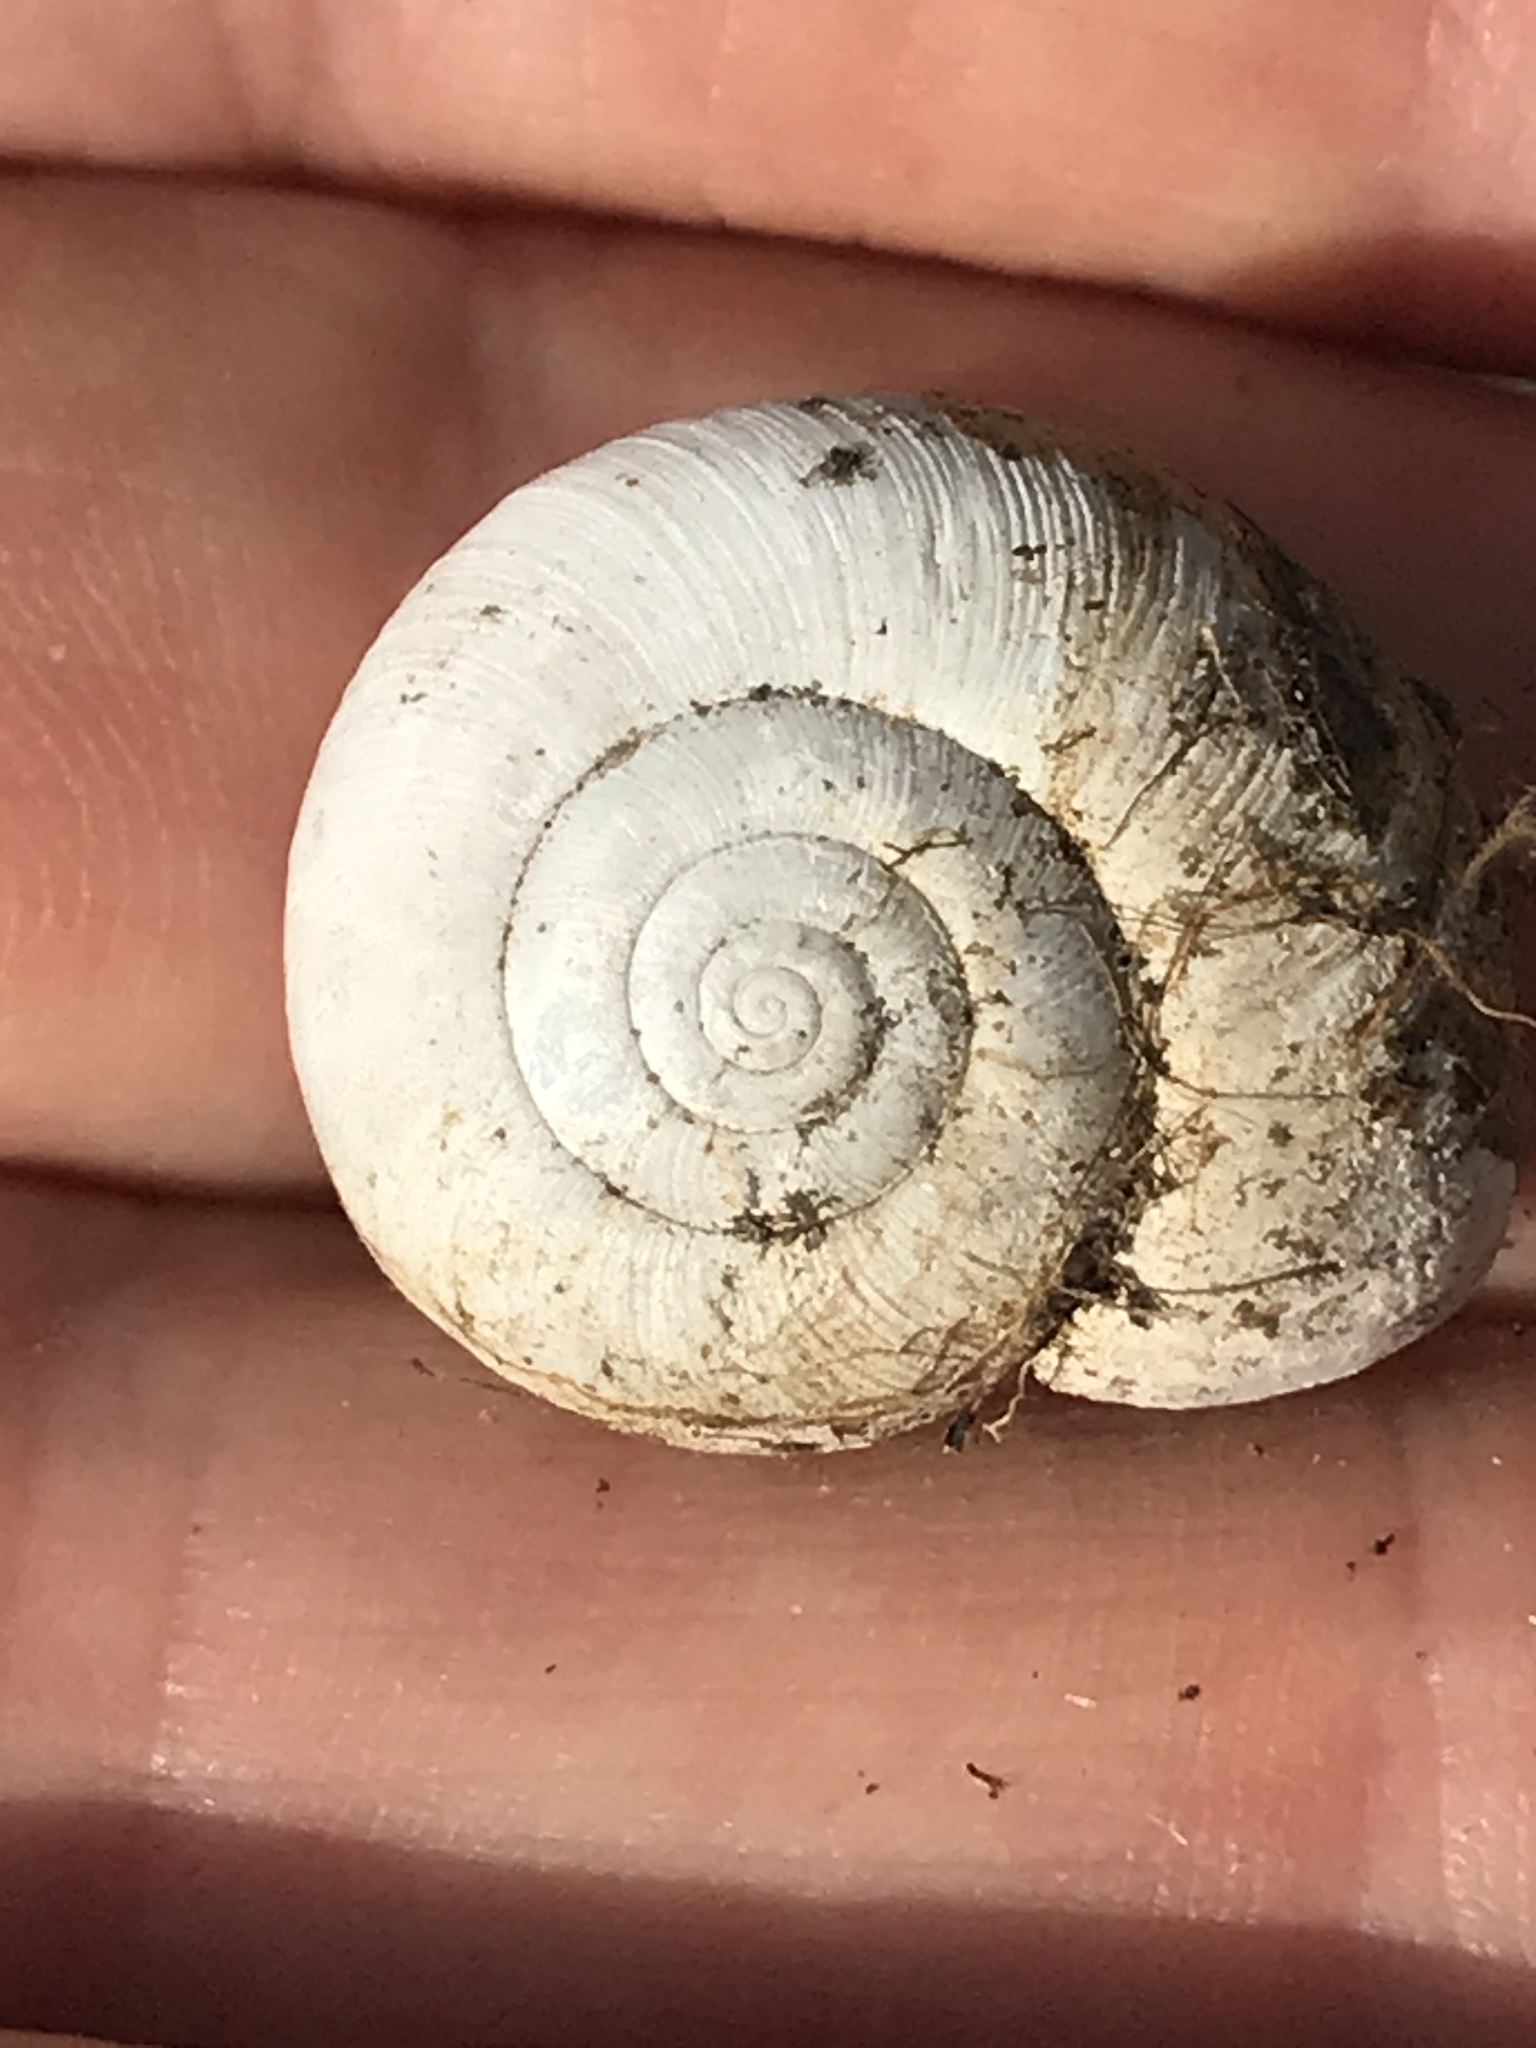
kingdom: Animalia
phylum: Mollusca
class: Gastropoda
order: Stylommatophora
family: Haplotrematidae
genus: Haplotrema
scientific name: Haplotrema minimum
